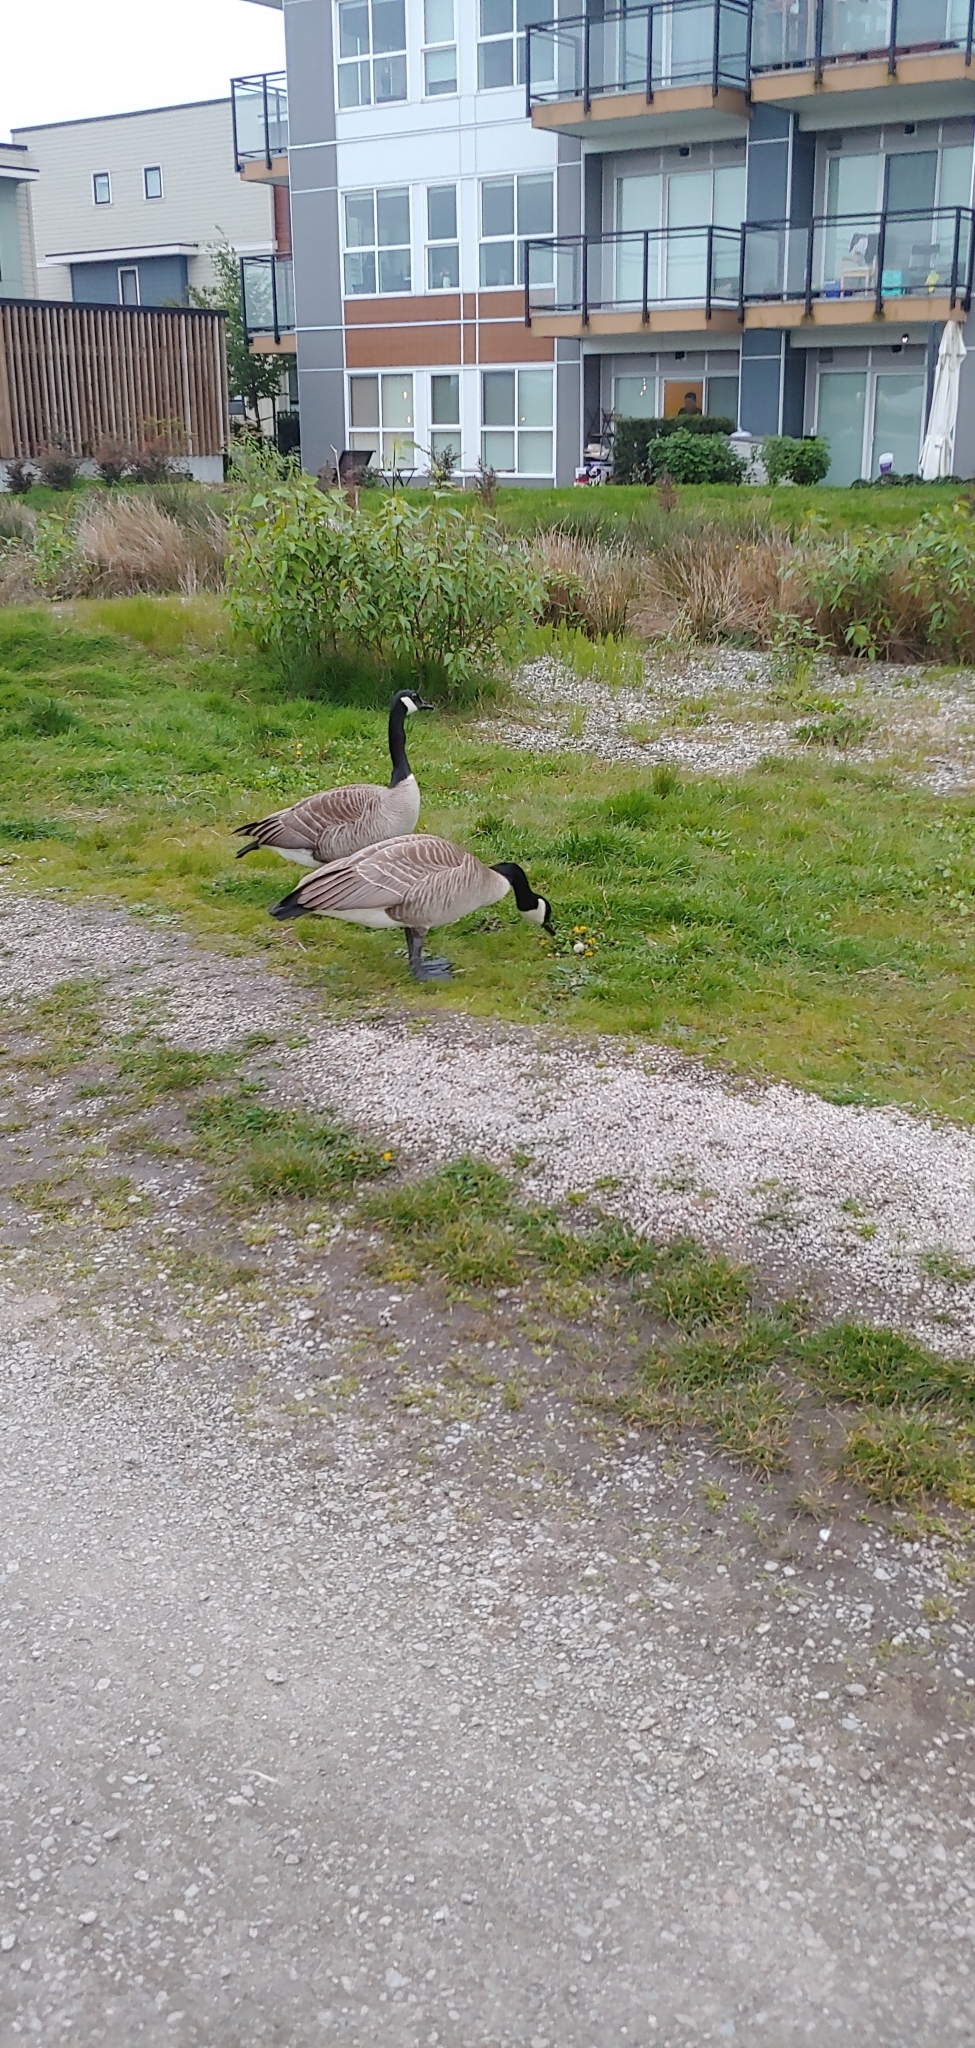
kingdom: Animalia
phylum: Chordata
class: Aves
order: Anseriformes
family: Anatidae
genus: Branta
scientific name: Branta canadensis
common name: Canada goose
